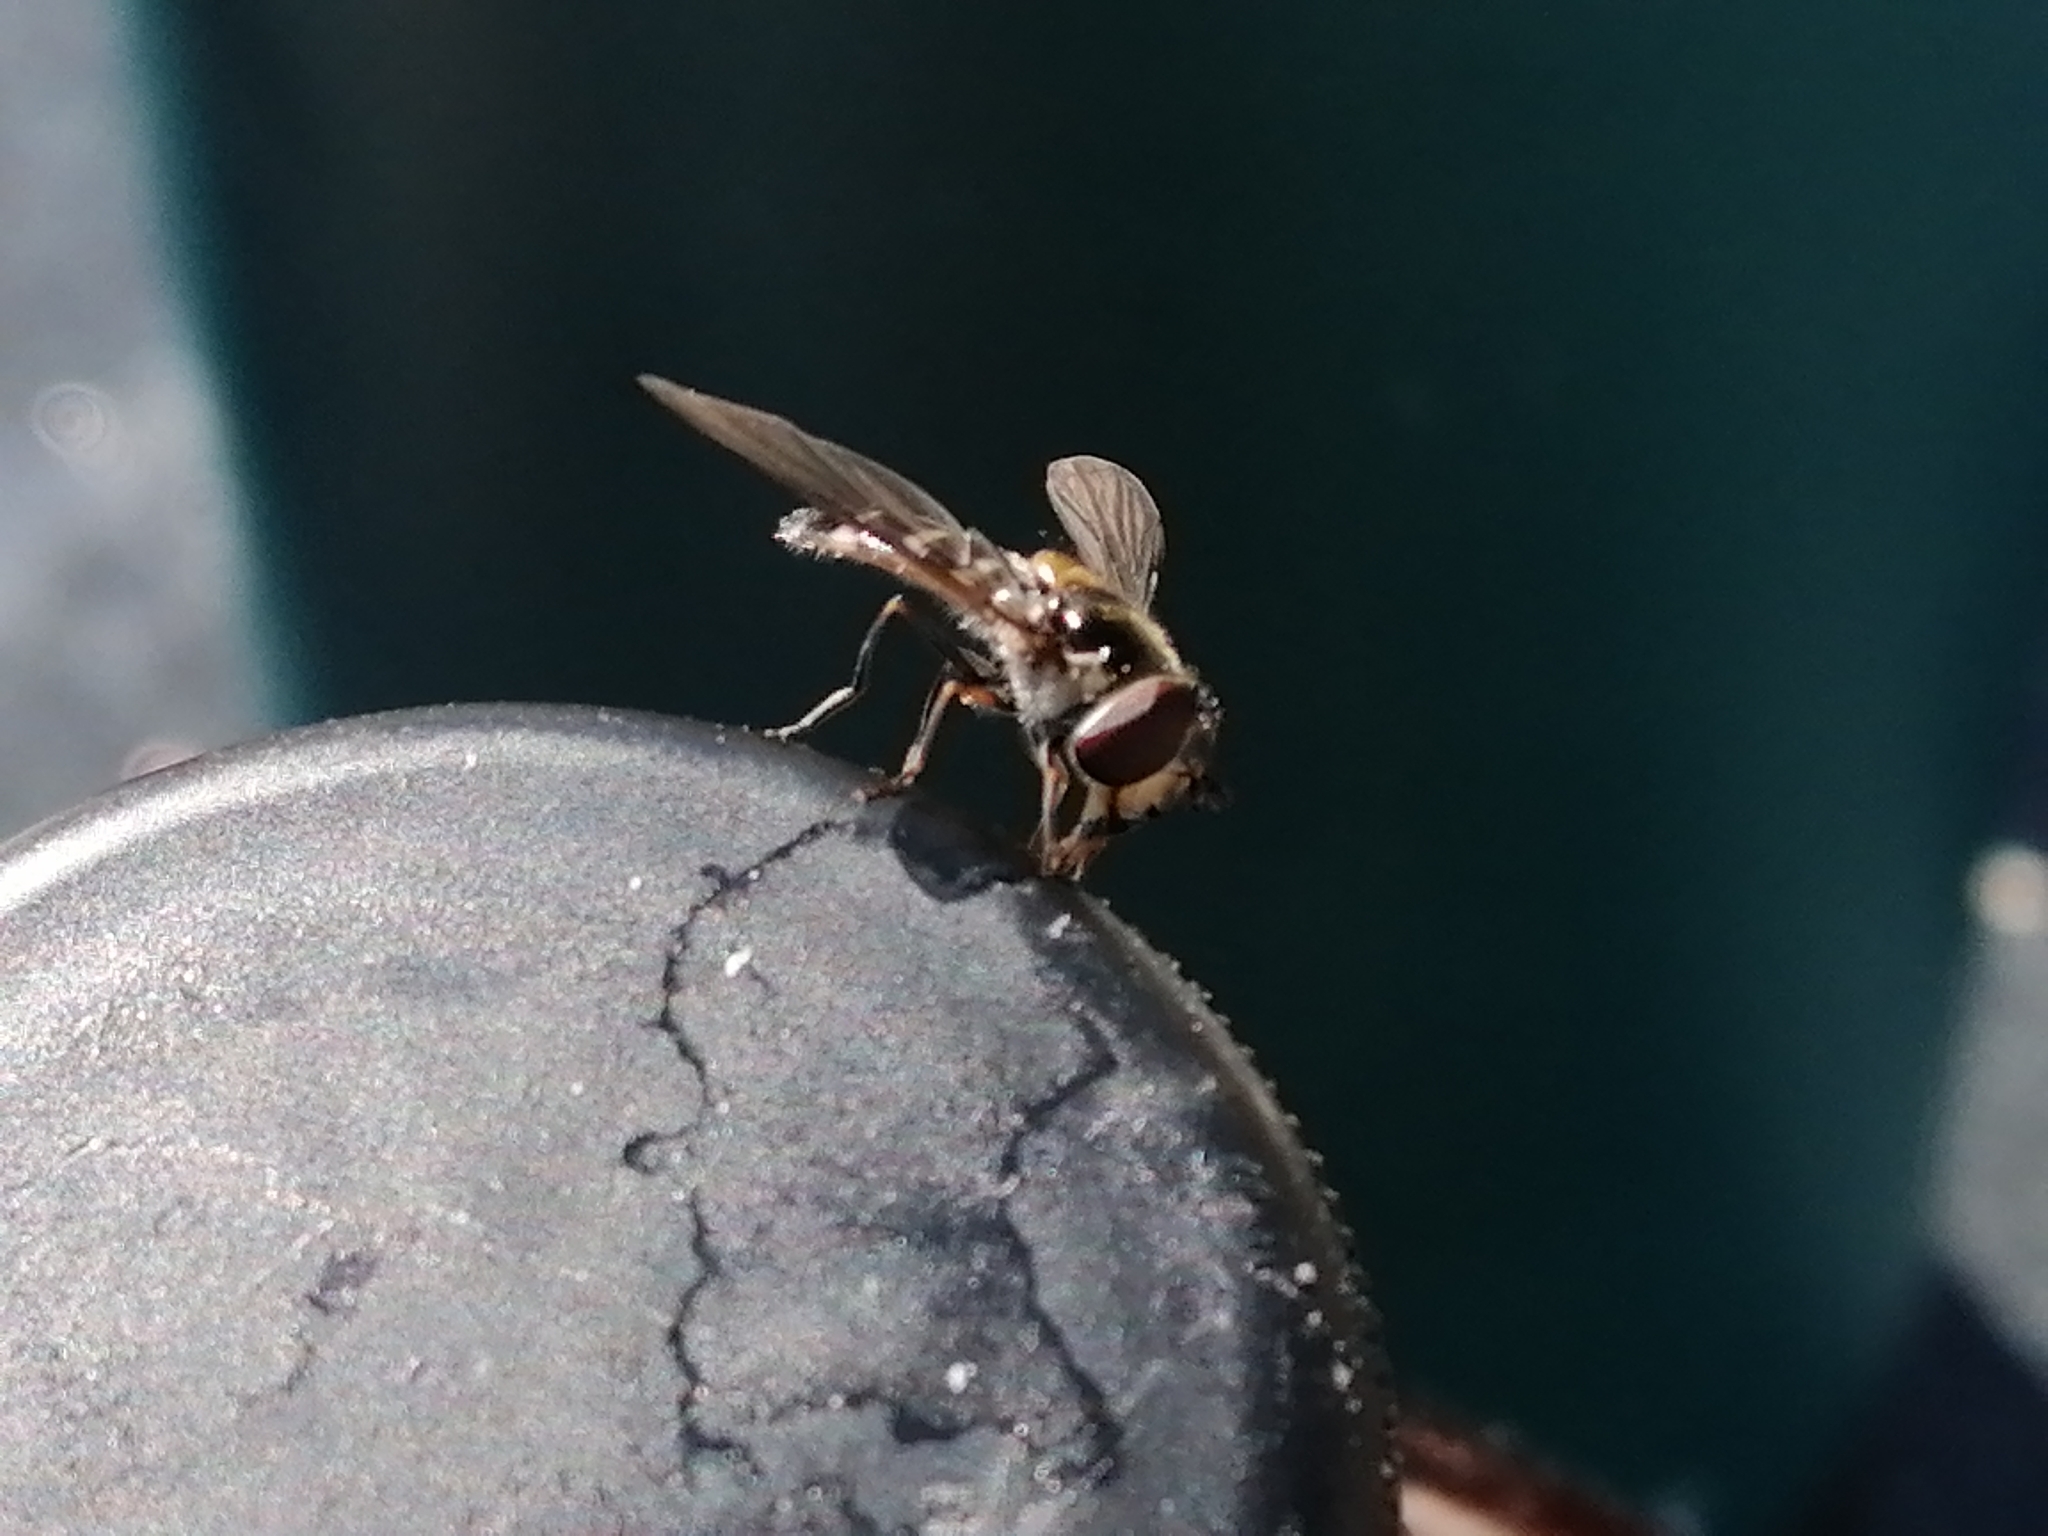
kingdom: Animalia
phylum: Arthropoda
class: Insecta
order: Diptera
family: Syrphidae
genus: Melangyna
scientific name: Melangyna novaezelandiae
